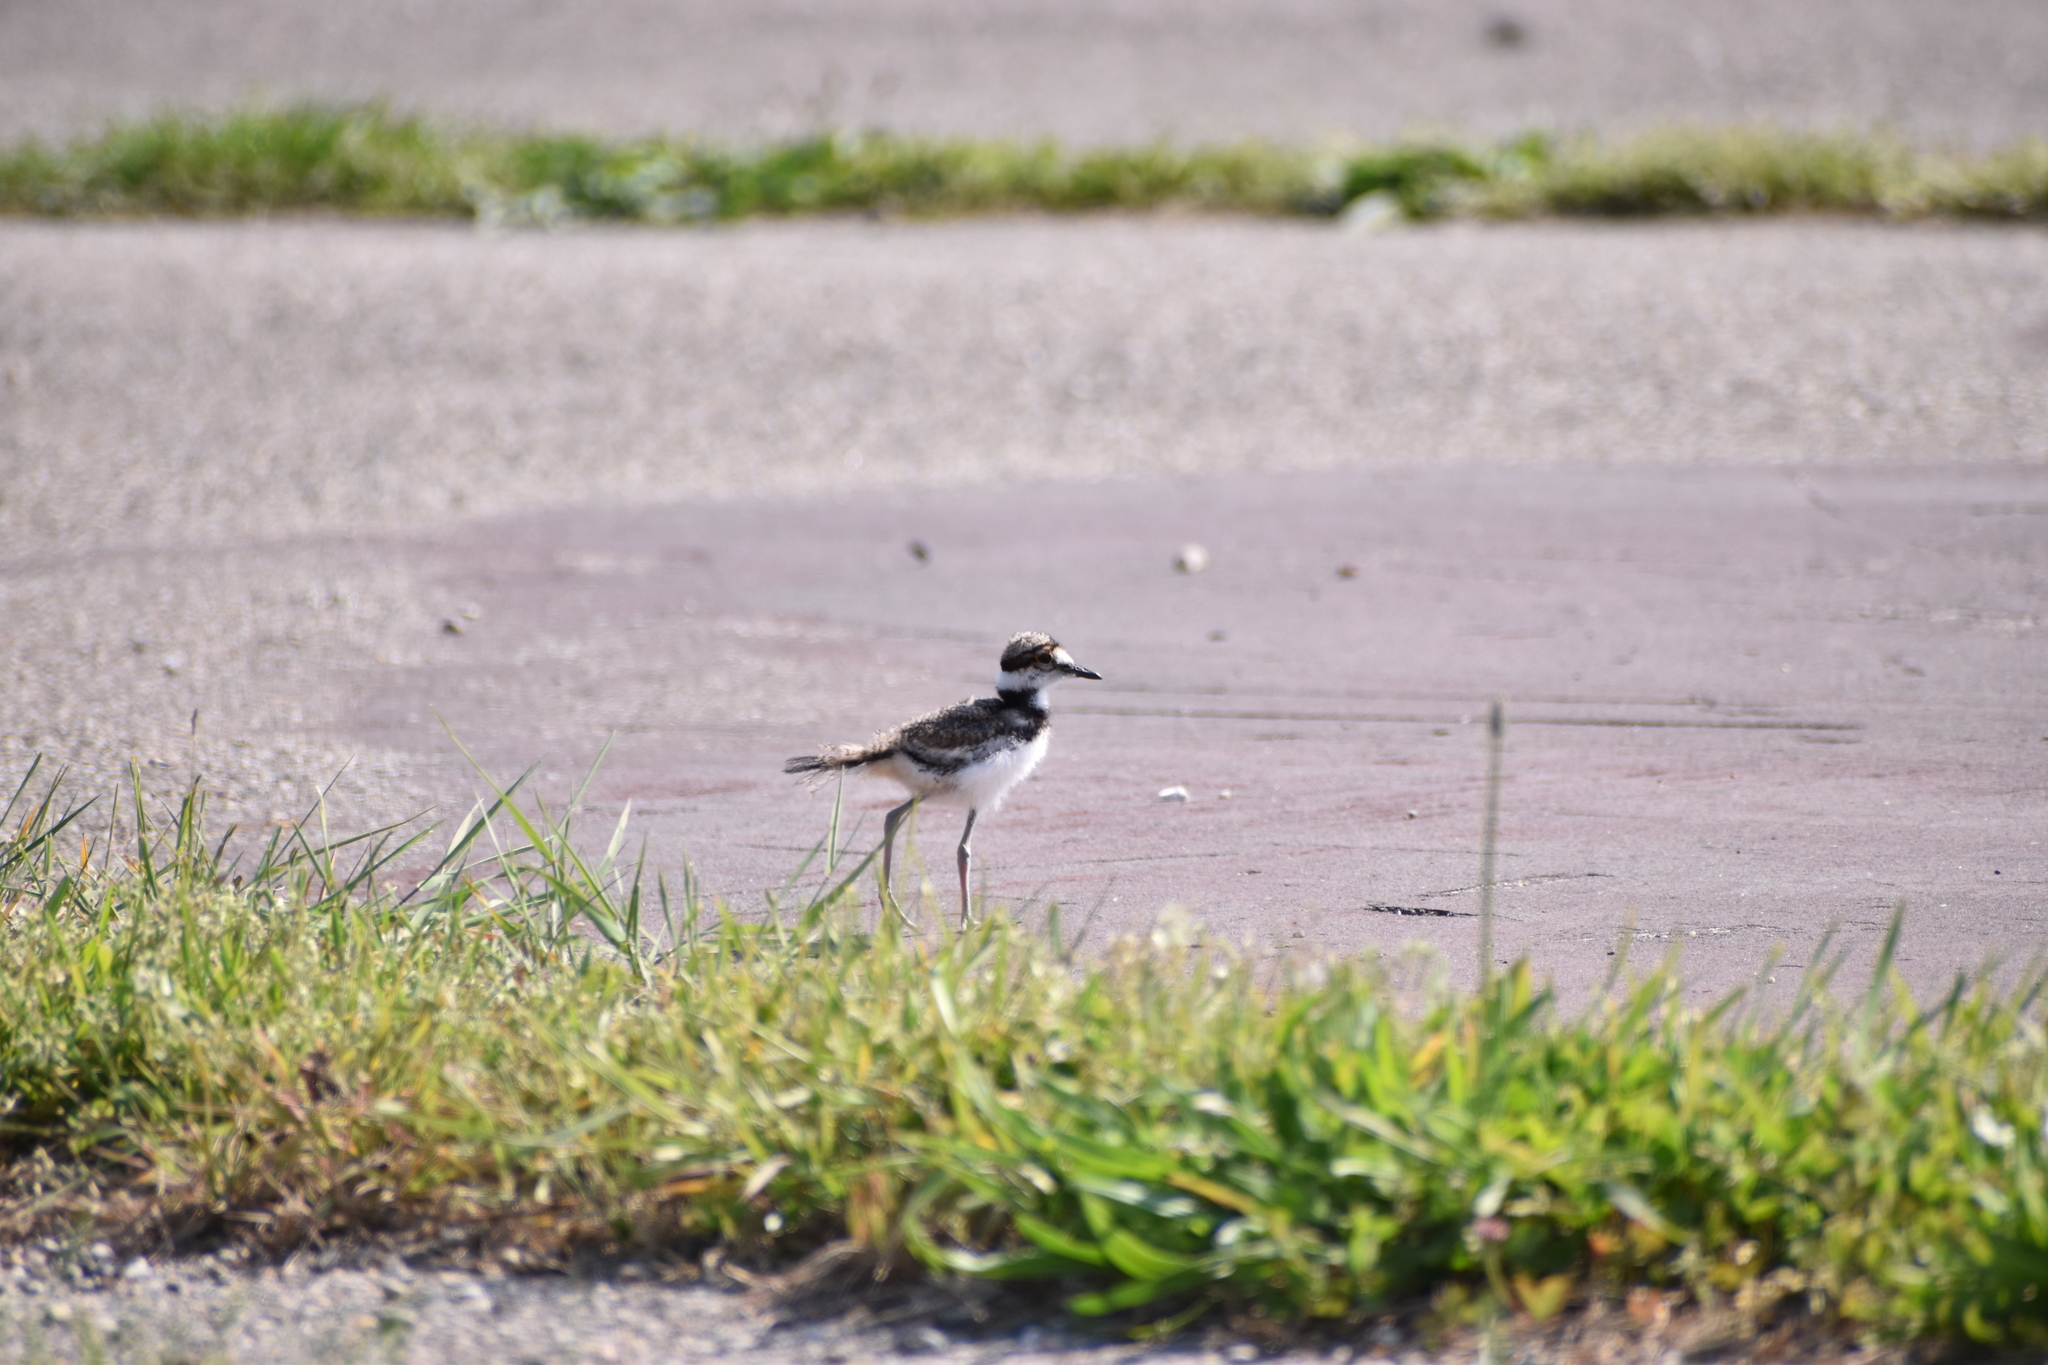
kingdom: Animalia
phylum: Chordata
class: Aves
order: Charadriiformes
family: Charadriidae
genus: Charadrius
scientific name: Charadrius vociferus
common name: Killdeer
